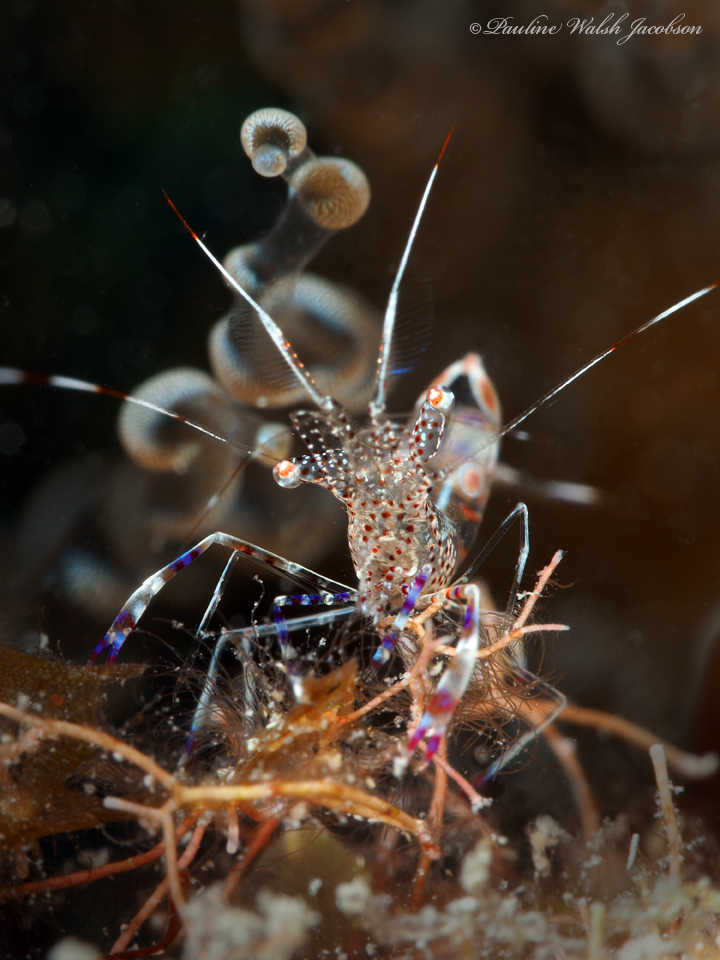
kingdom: Animalia
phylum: Arthropoda
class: Malacostraca
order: Decapoda
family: Palaemonidae
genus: Periclimenes
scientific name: Periclimenes yucatanicus
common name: Spotted cleaning shrimp
